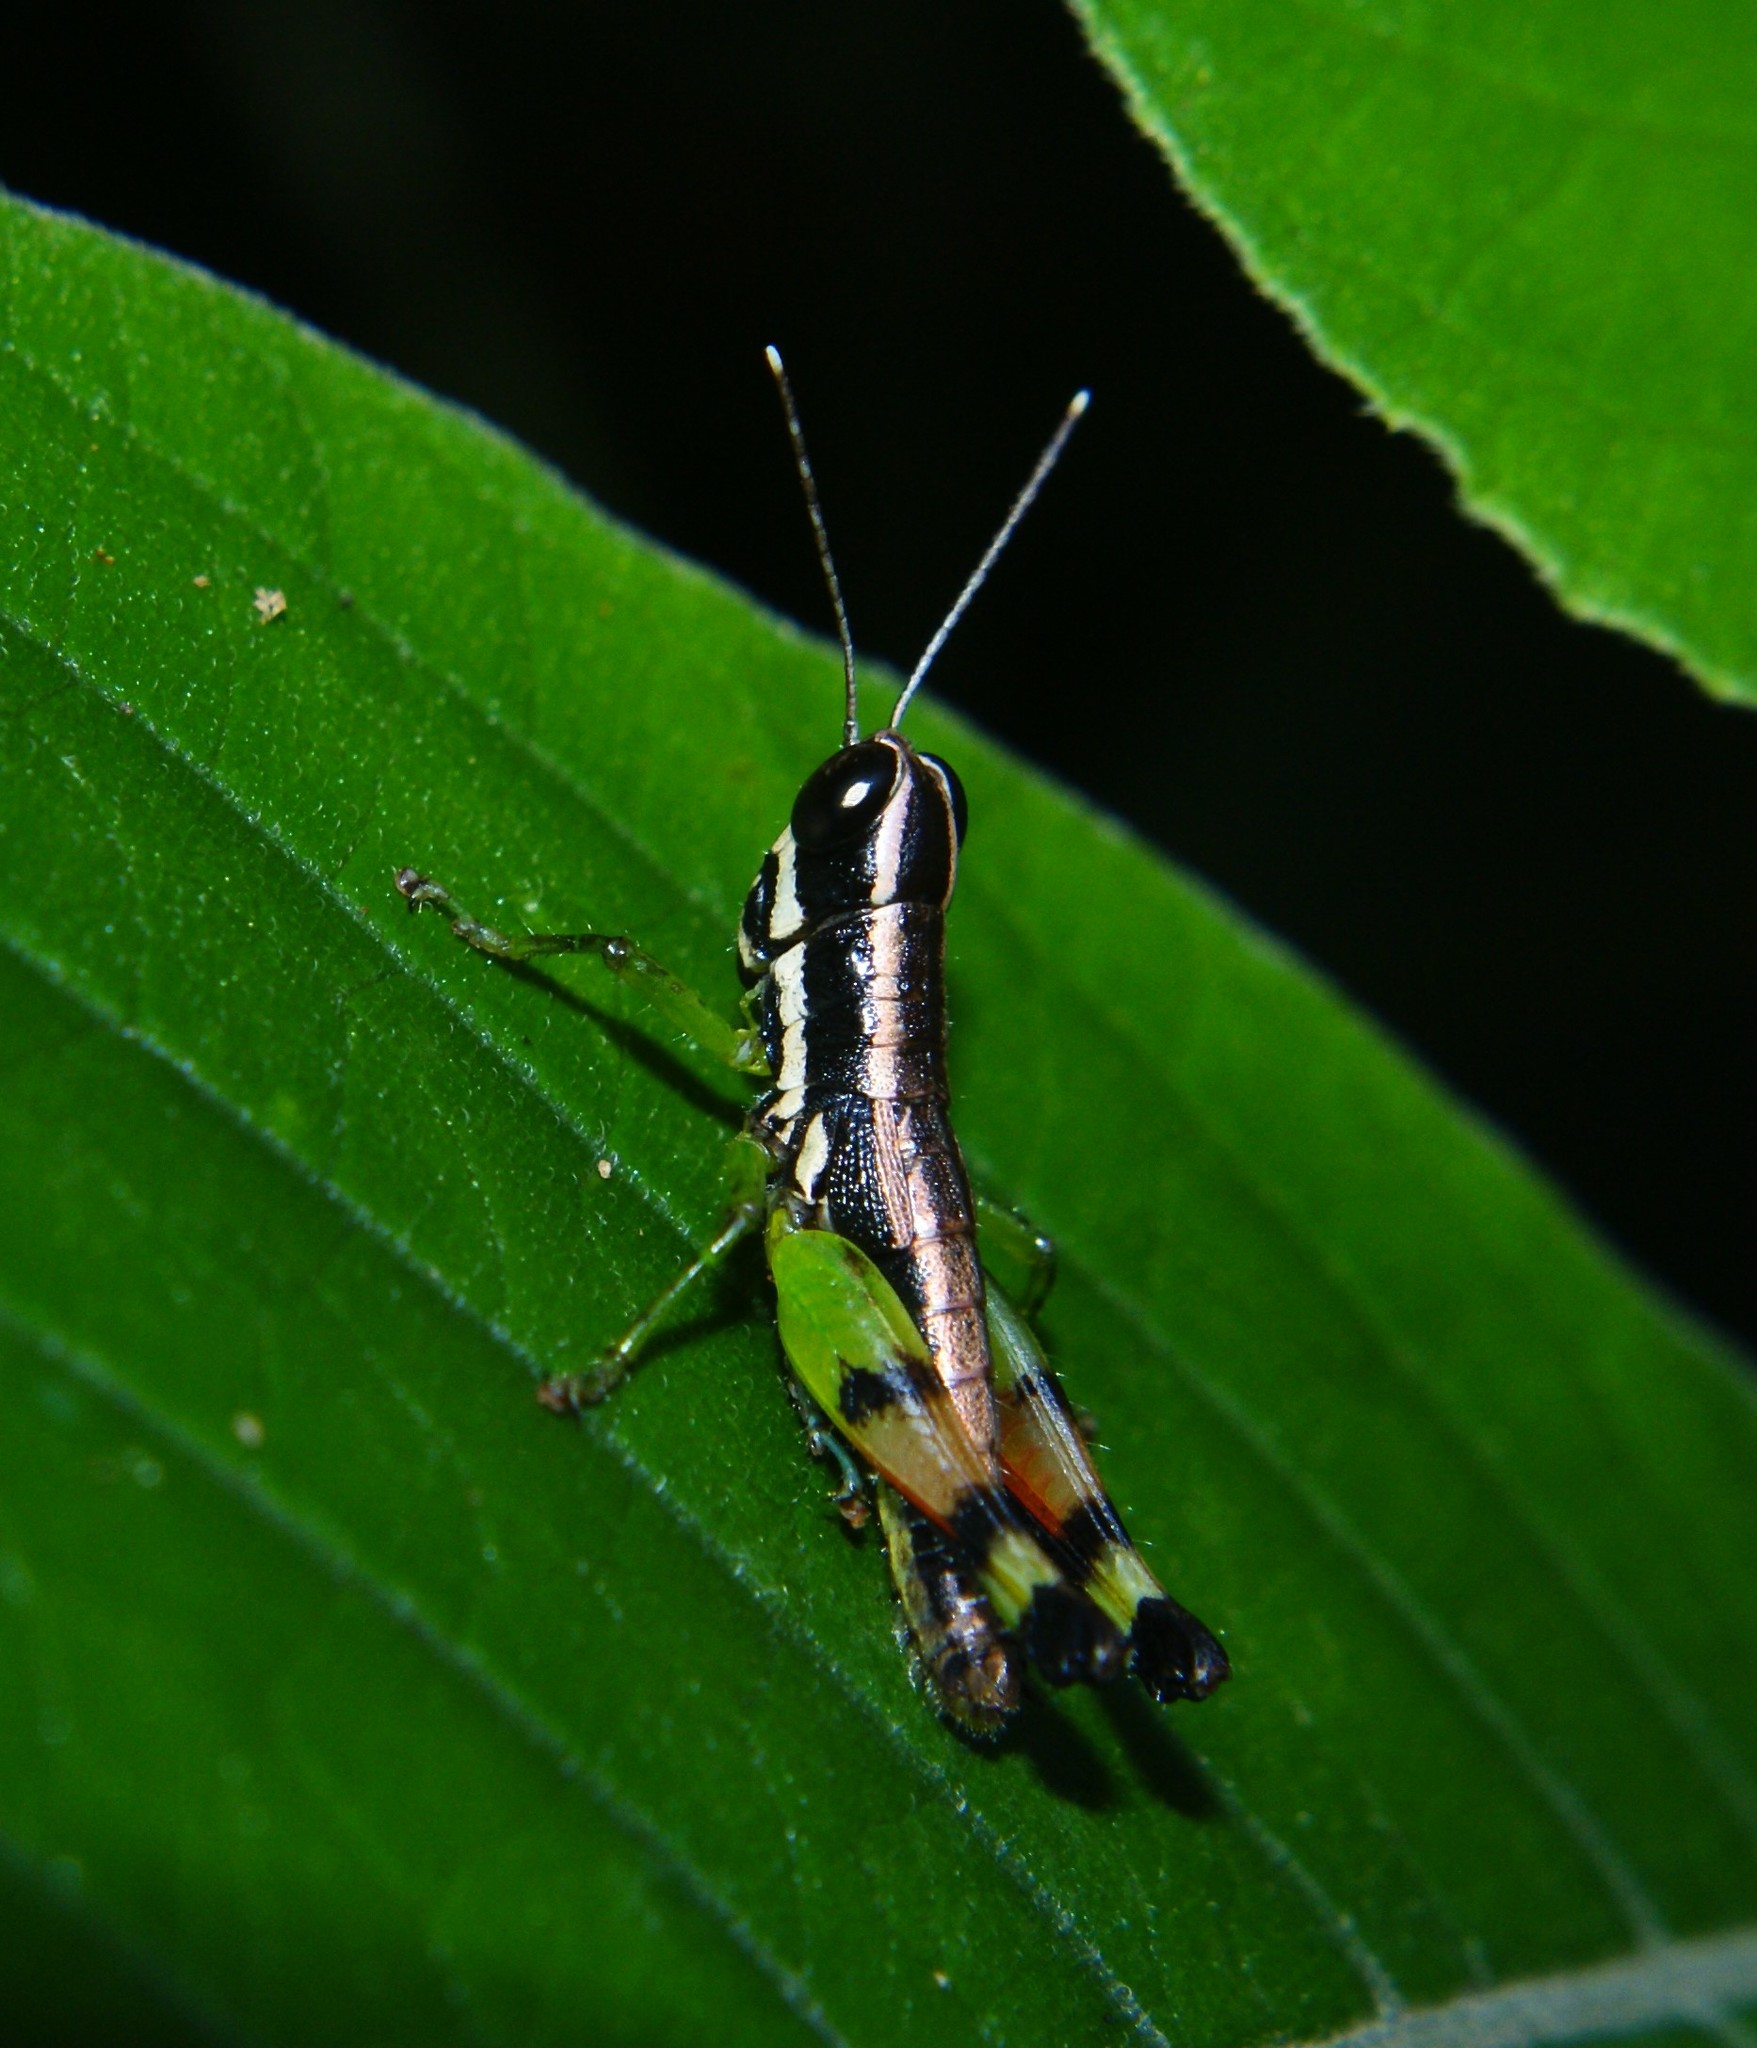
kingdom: Animalia
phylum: Arthropoda
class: Insecta
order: Orthoptera
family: Acrididae
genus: Chitaura
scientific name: Chitaura indica
